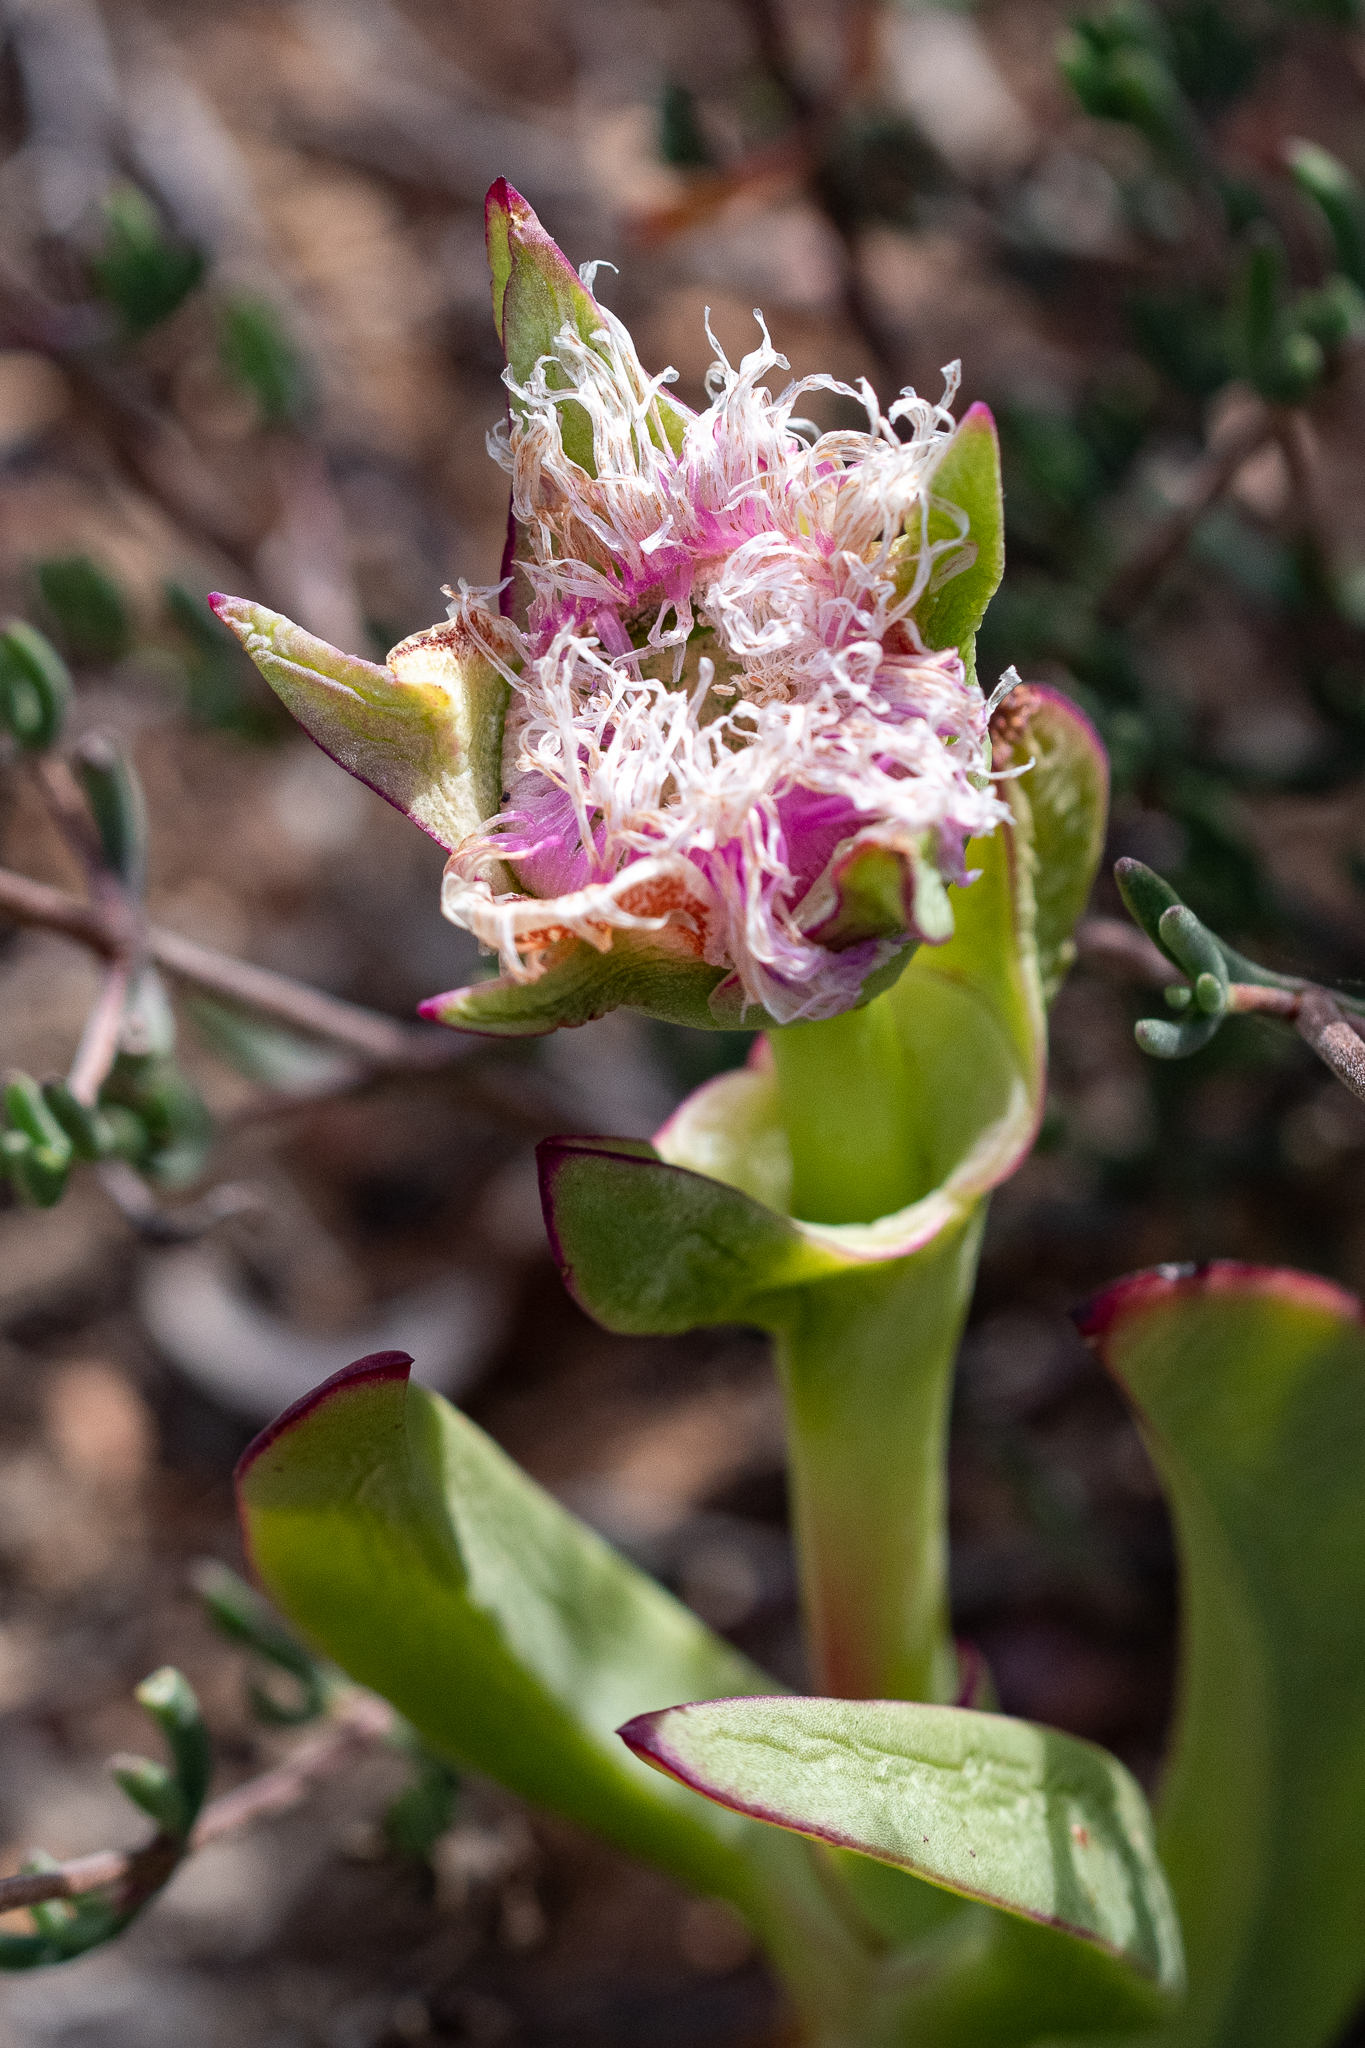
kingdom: Plantae
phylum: Tracheophyta
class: Magnoliopsida
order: Caryophyllales
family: Aizoaceae
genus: Carpobrotus
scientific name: Carpobrotus mellei
